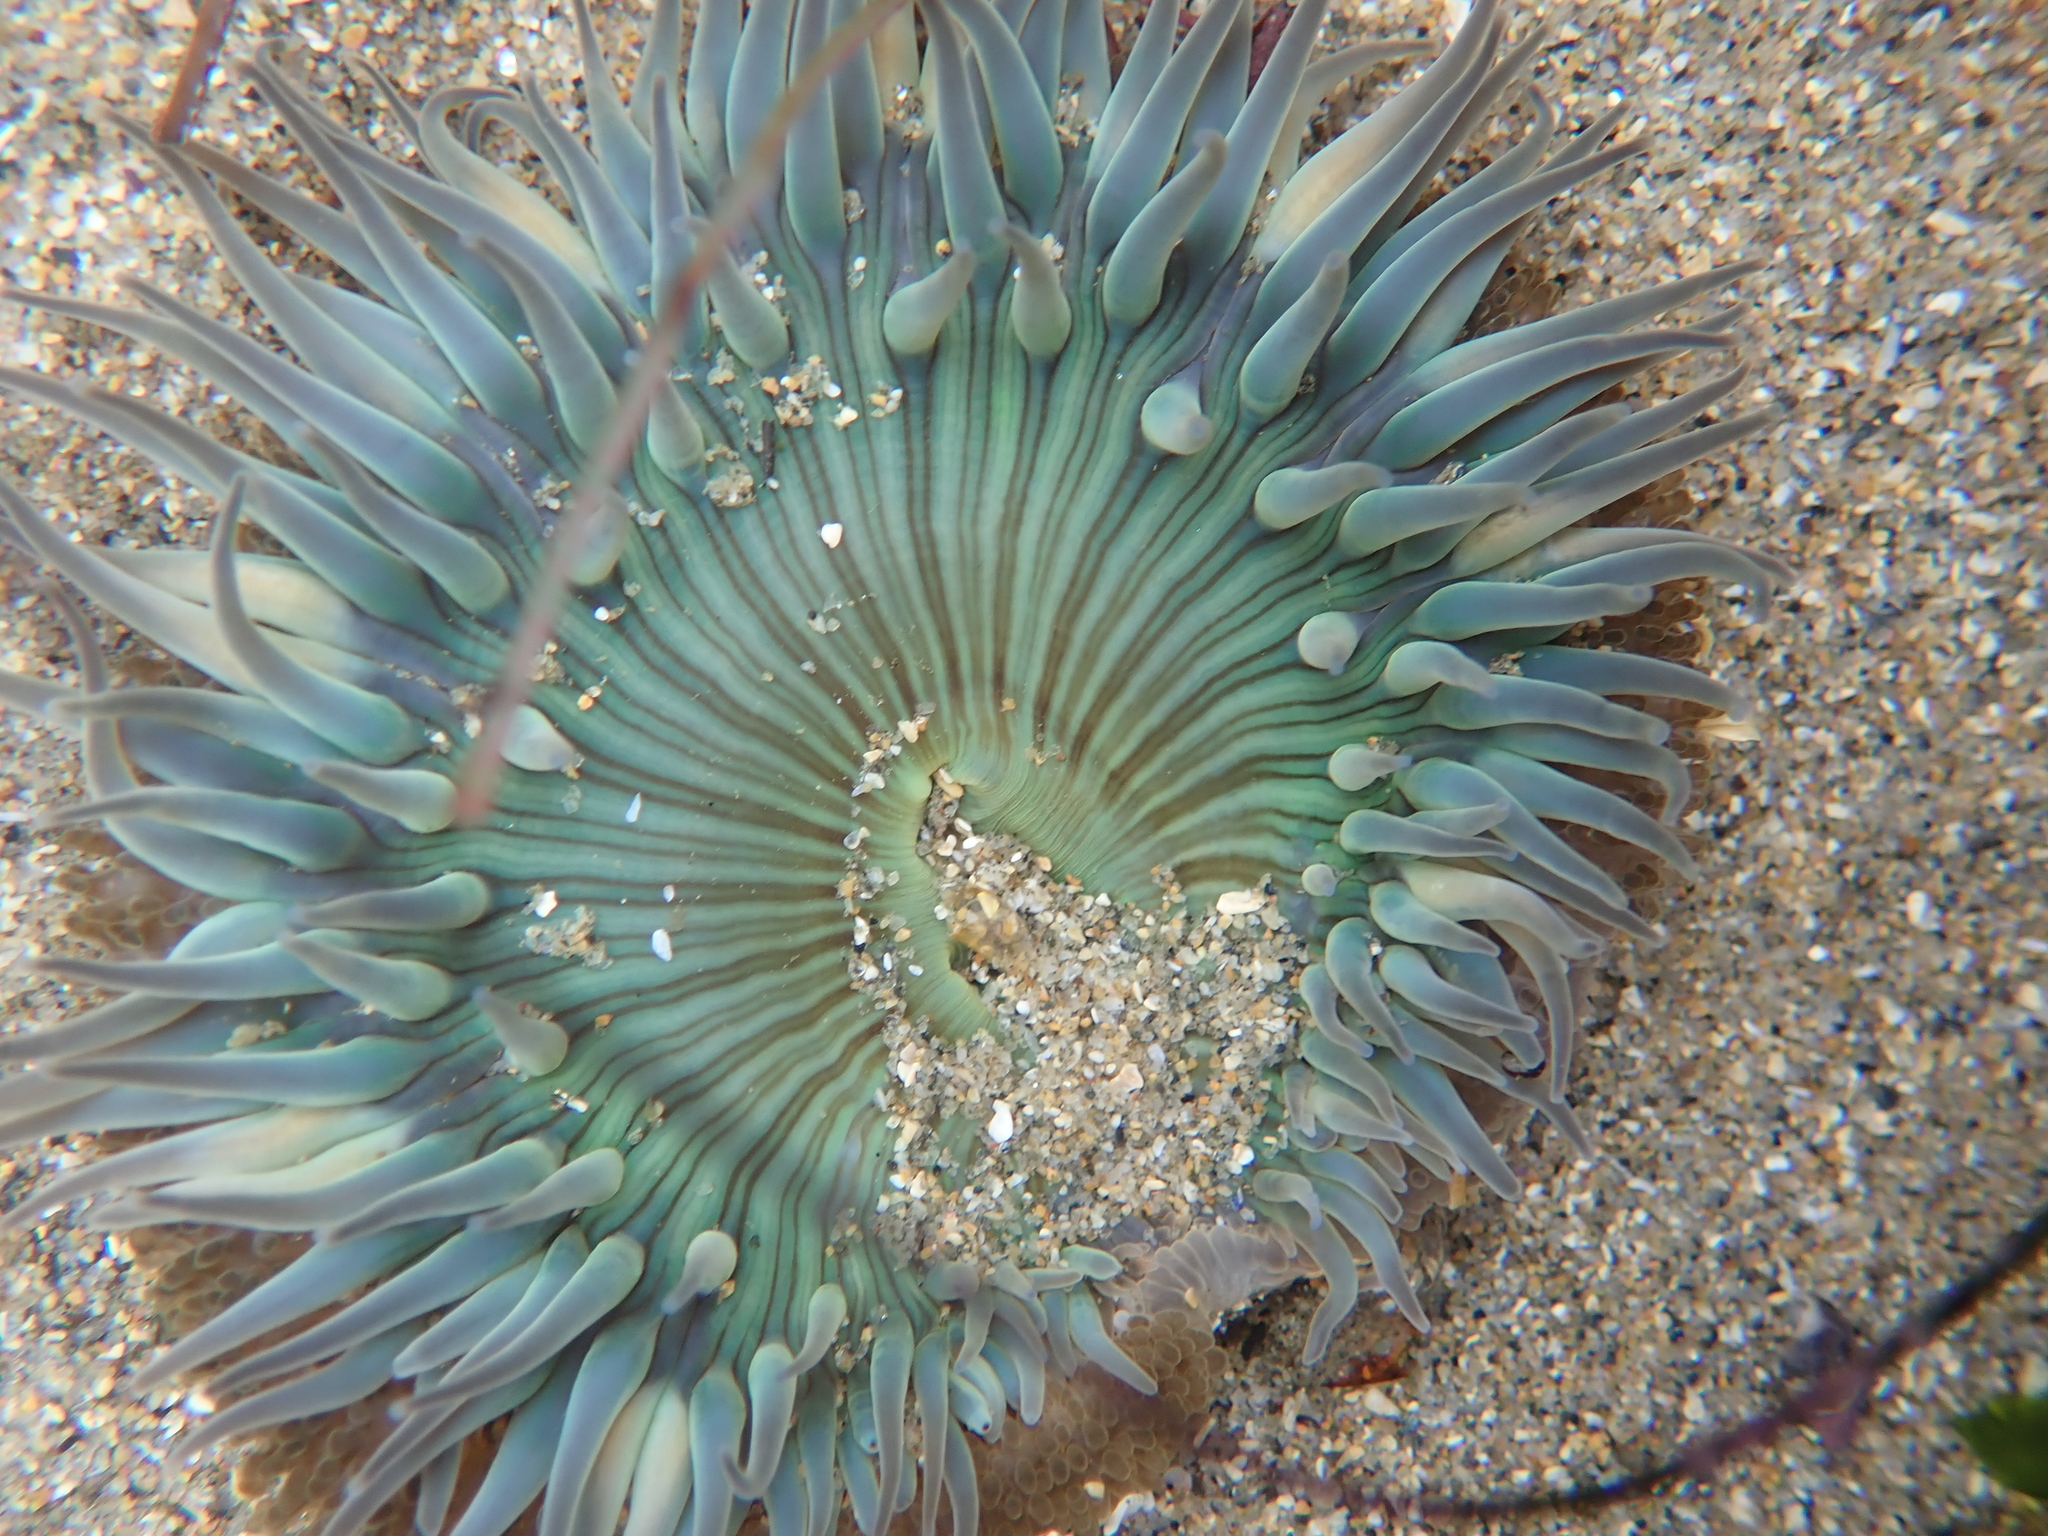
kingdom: Animalia
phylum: Cnidaria
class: Anthozoa
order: Actiniaria
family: Actiniidae
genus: Anthopleura
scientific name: Anthopleura sola
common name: Sun anemone
